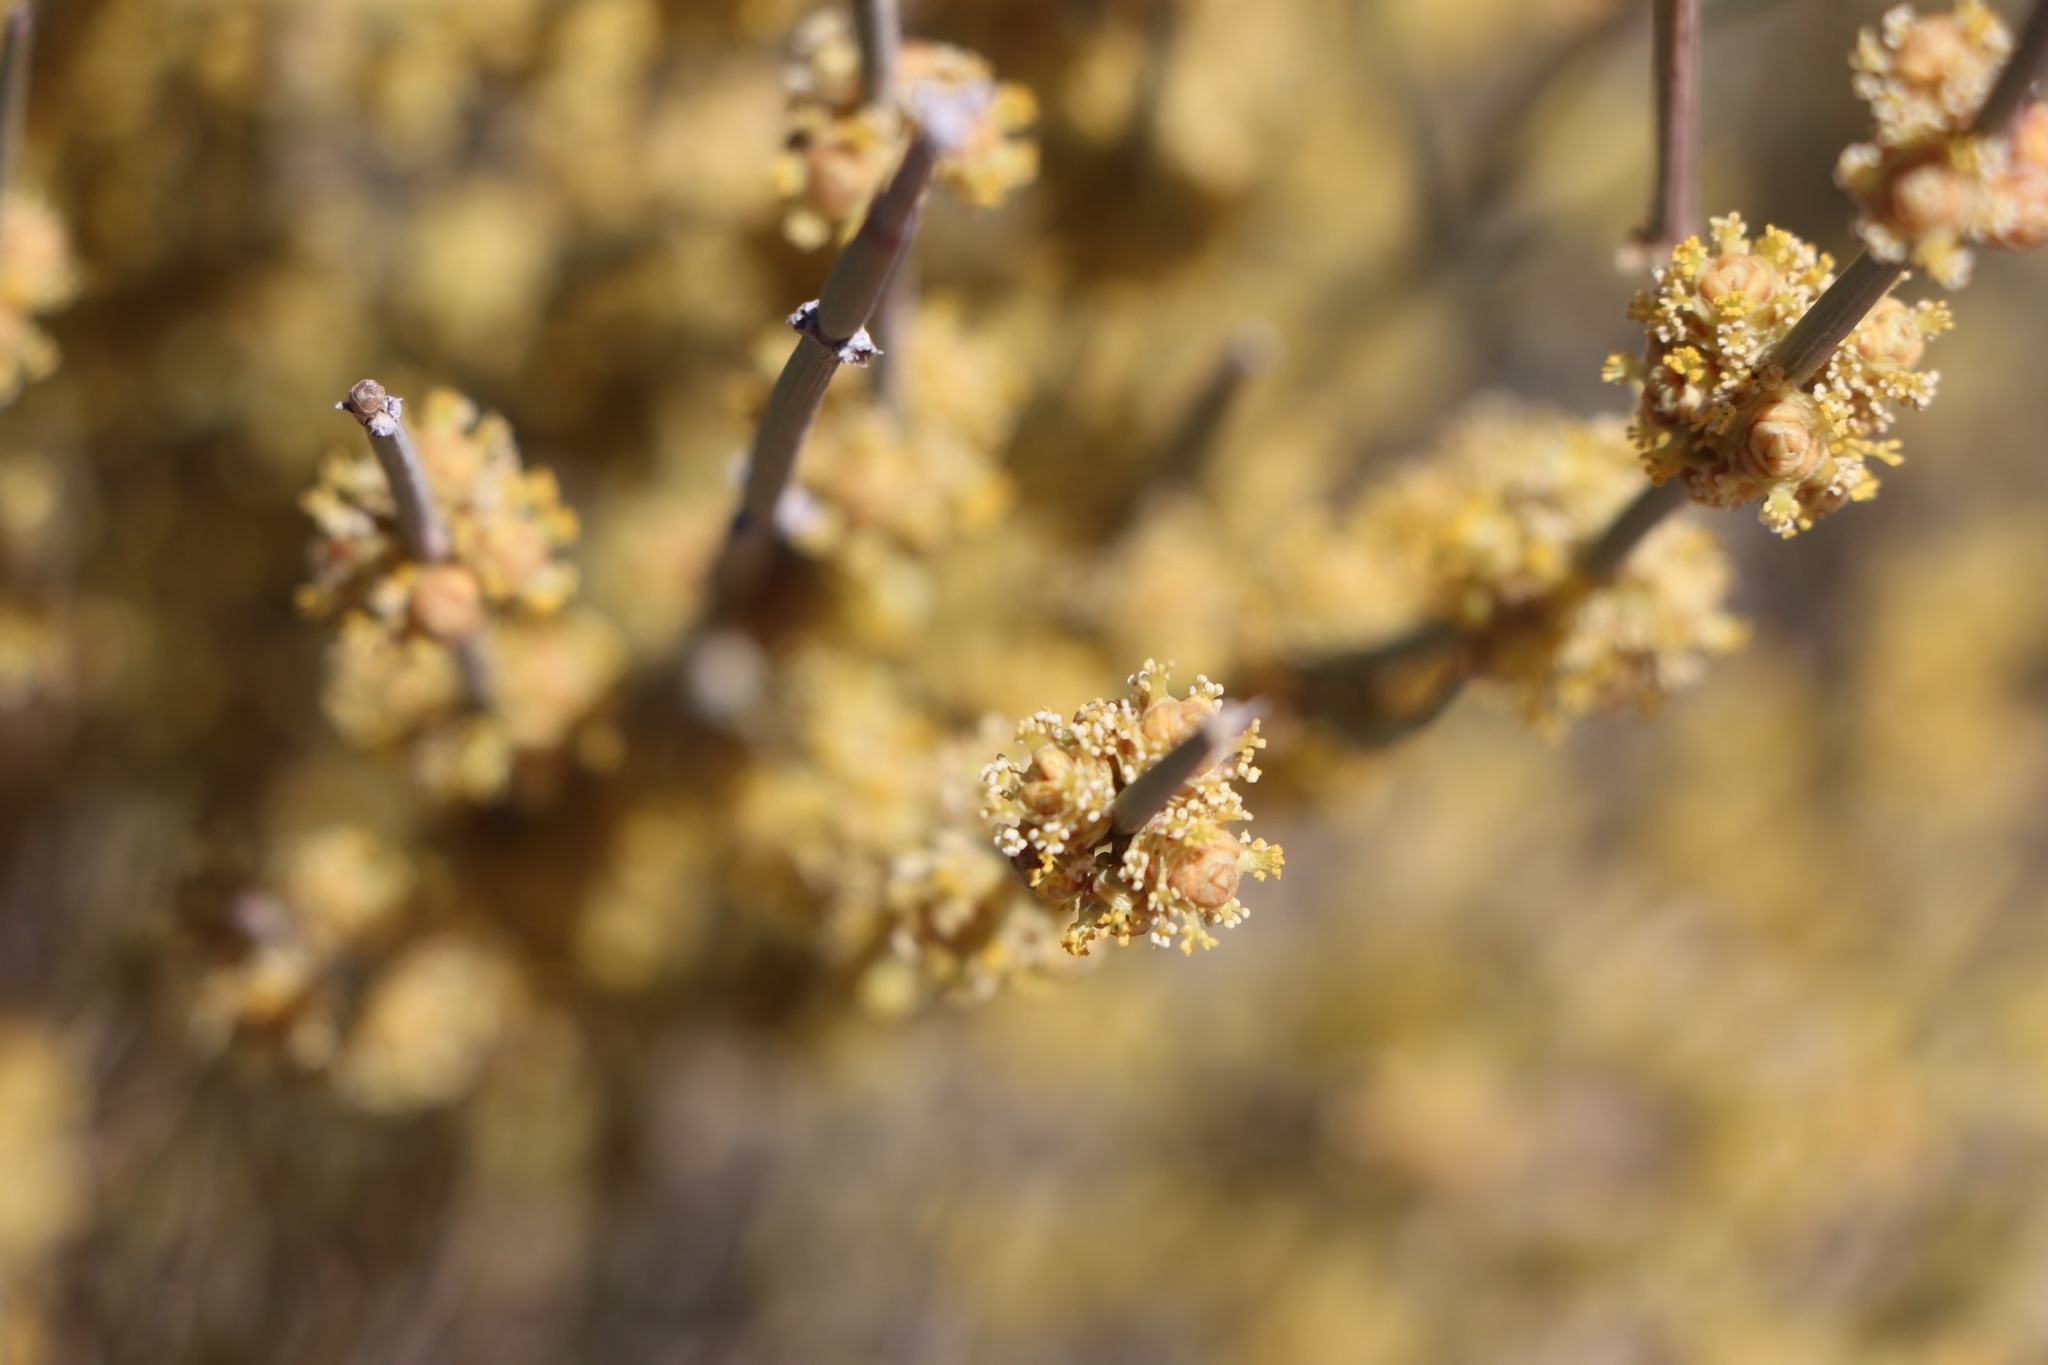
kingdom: Plantae
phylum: Tracheophyta
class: Gnetopsida
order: Ephedrales
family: Ephedraceae
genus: Ephedra
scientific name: Ephedra torreyana
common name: Torrey ephedra
